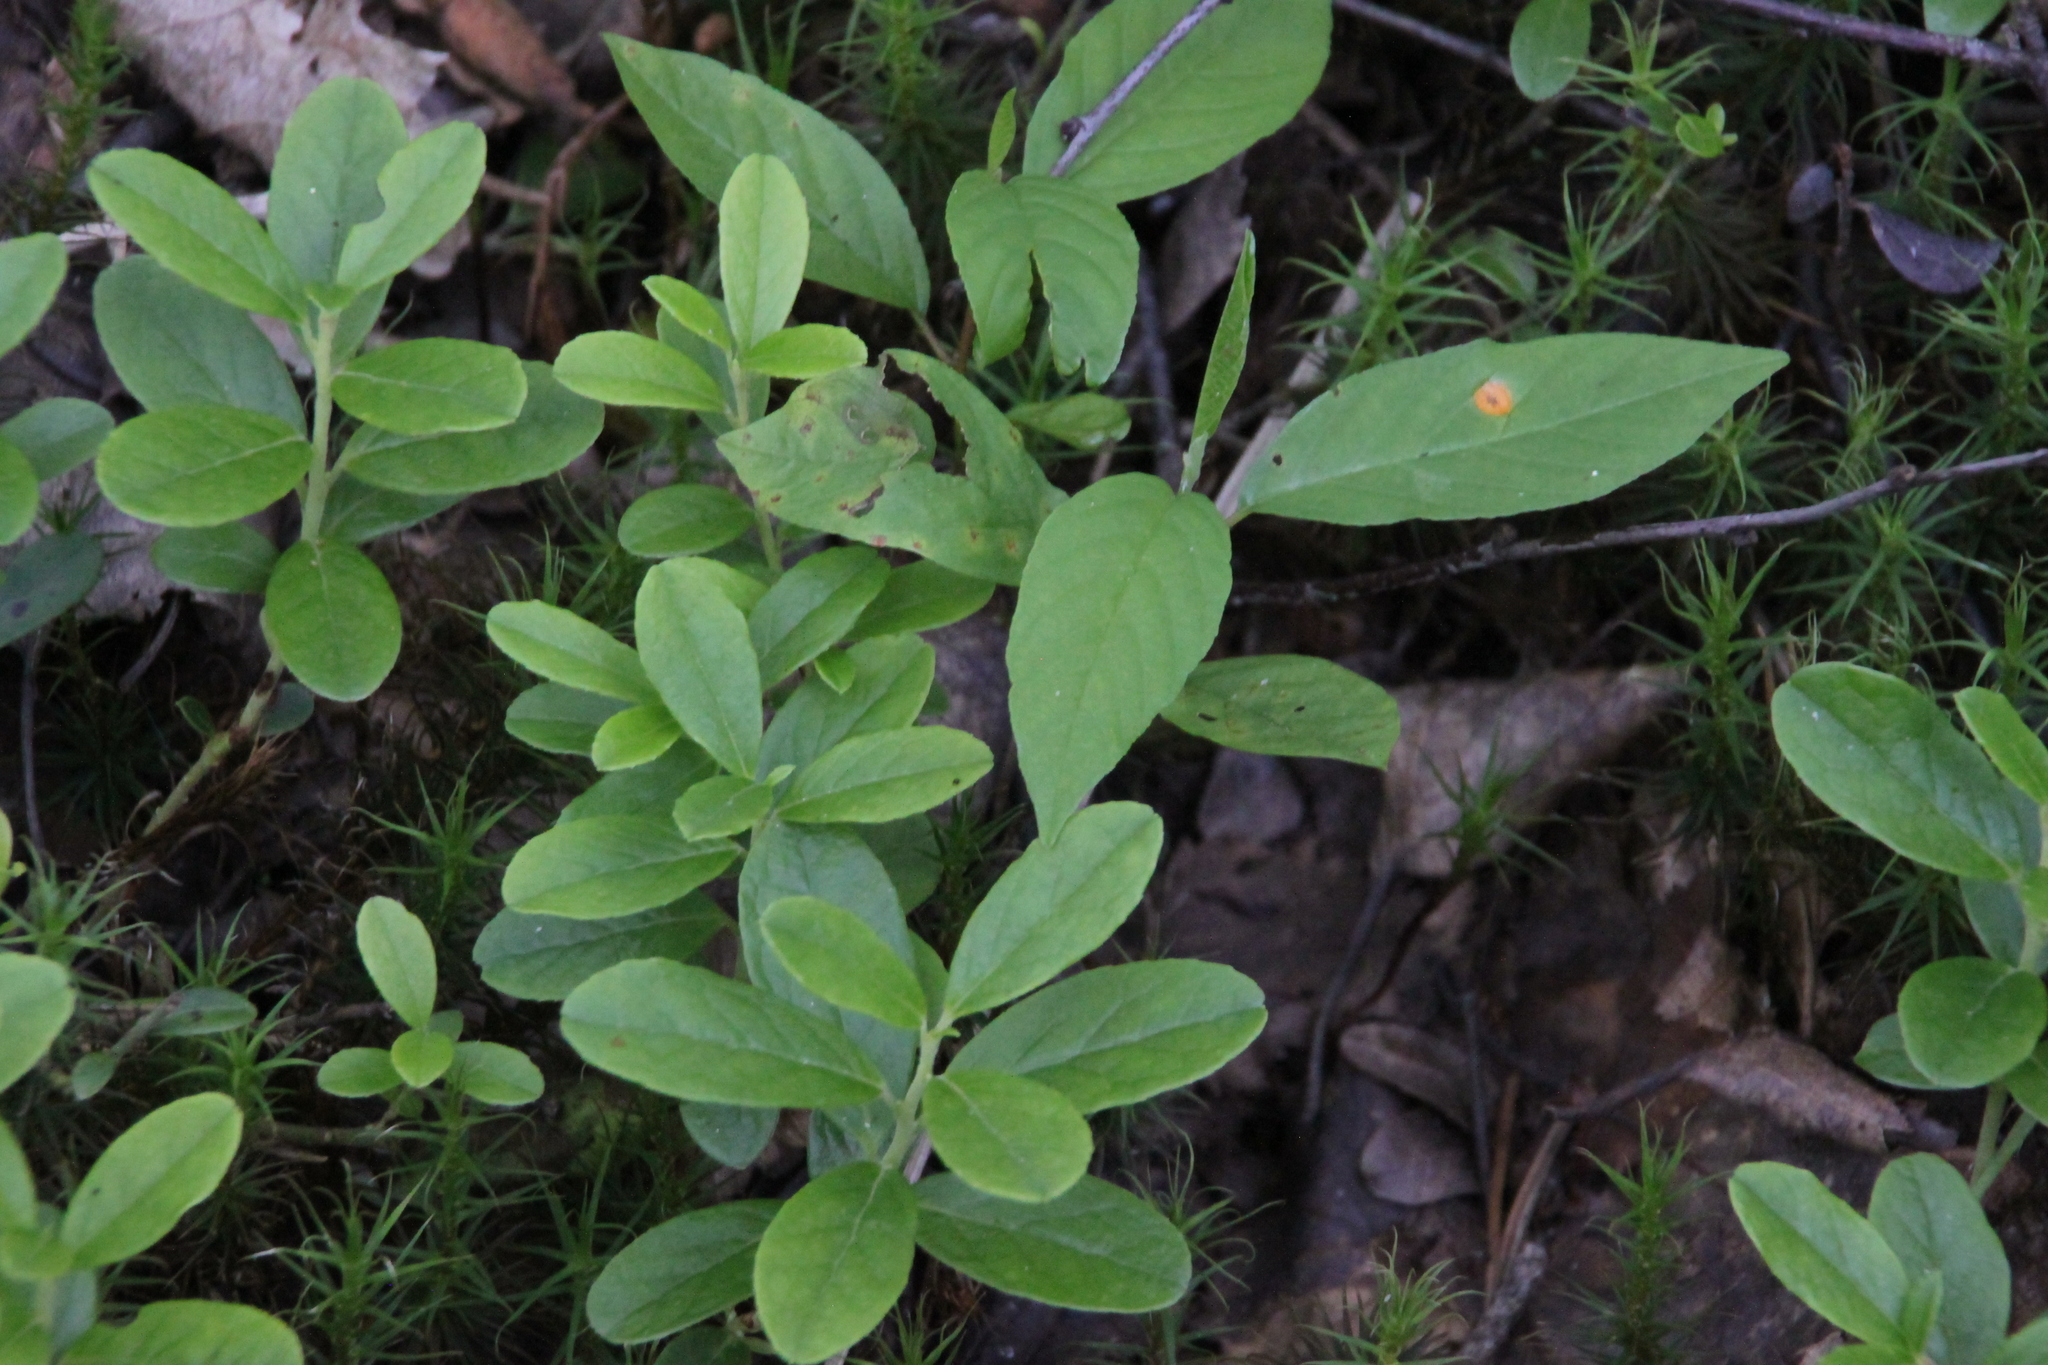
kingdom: Plantae
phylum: Tracheophyta
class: Magnoliopsida
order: Ericales
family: Ericaceae
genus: Vaccinium
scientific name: Vaccinium vitis-idaea
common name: Cowberry
